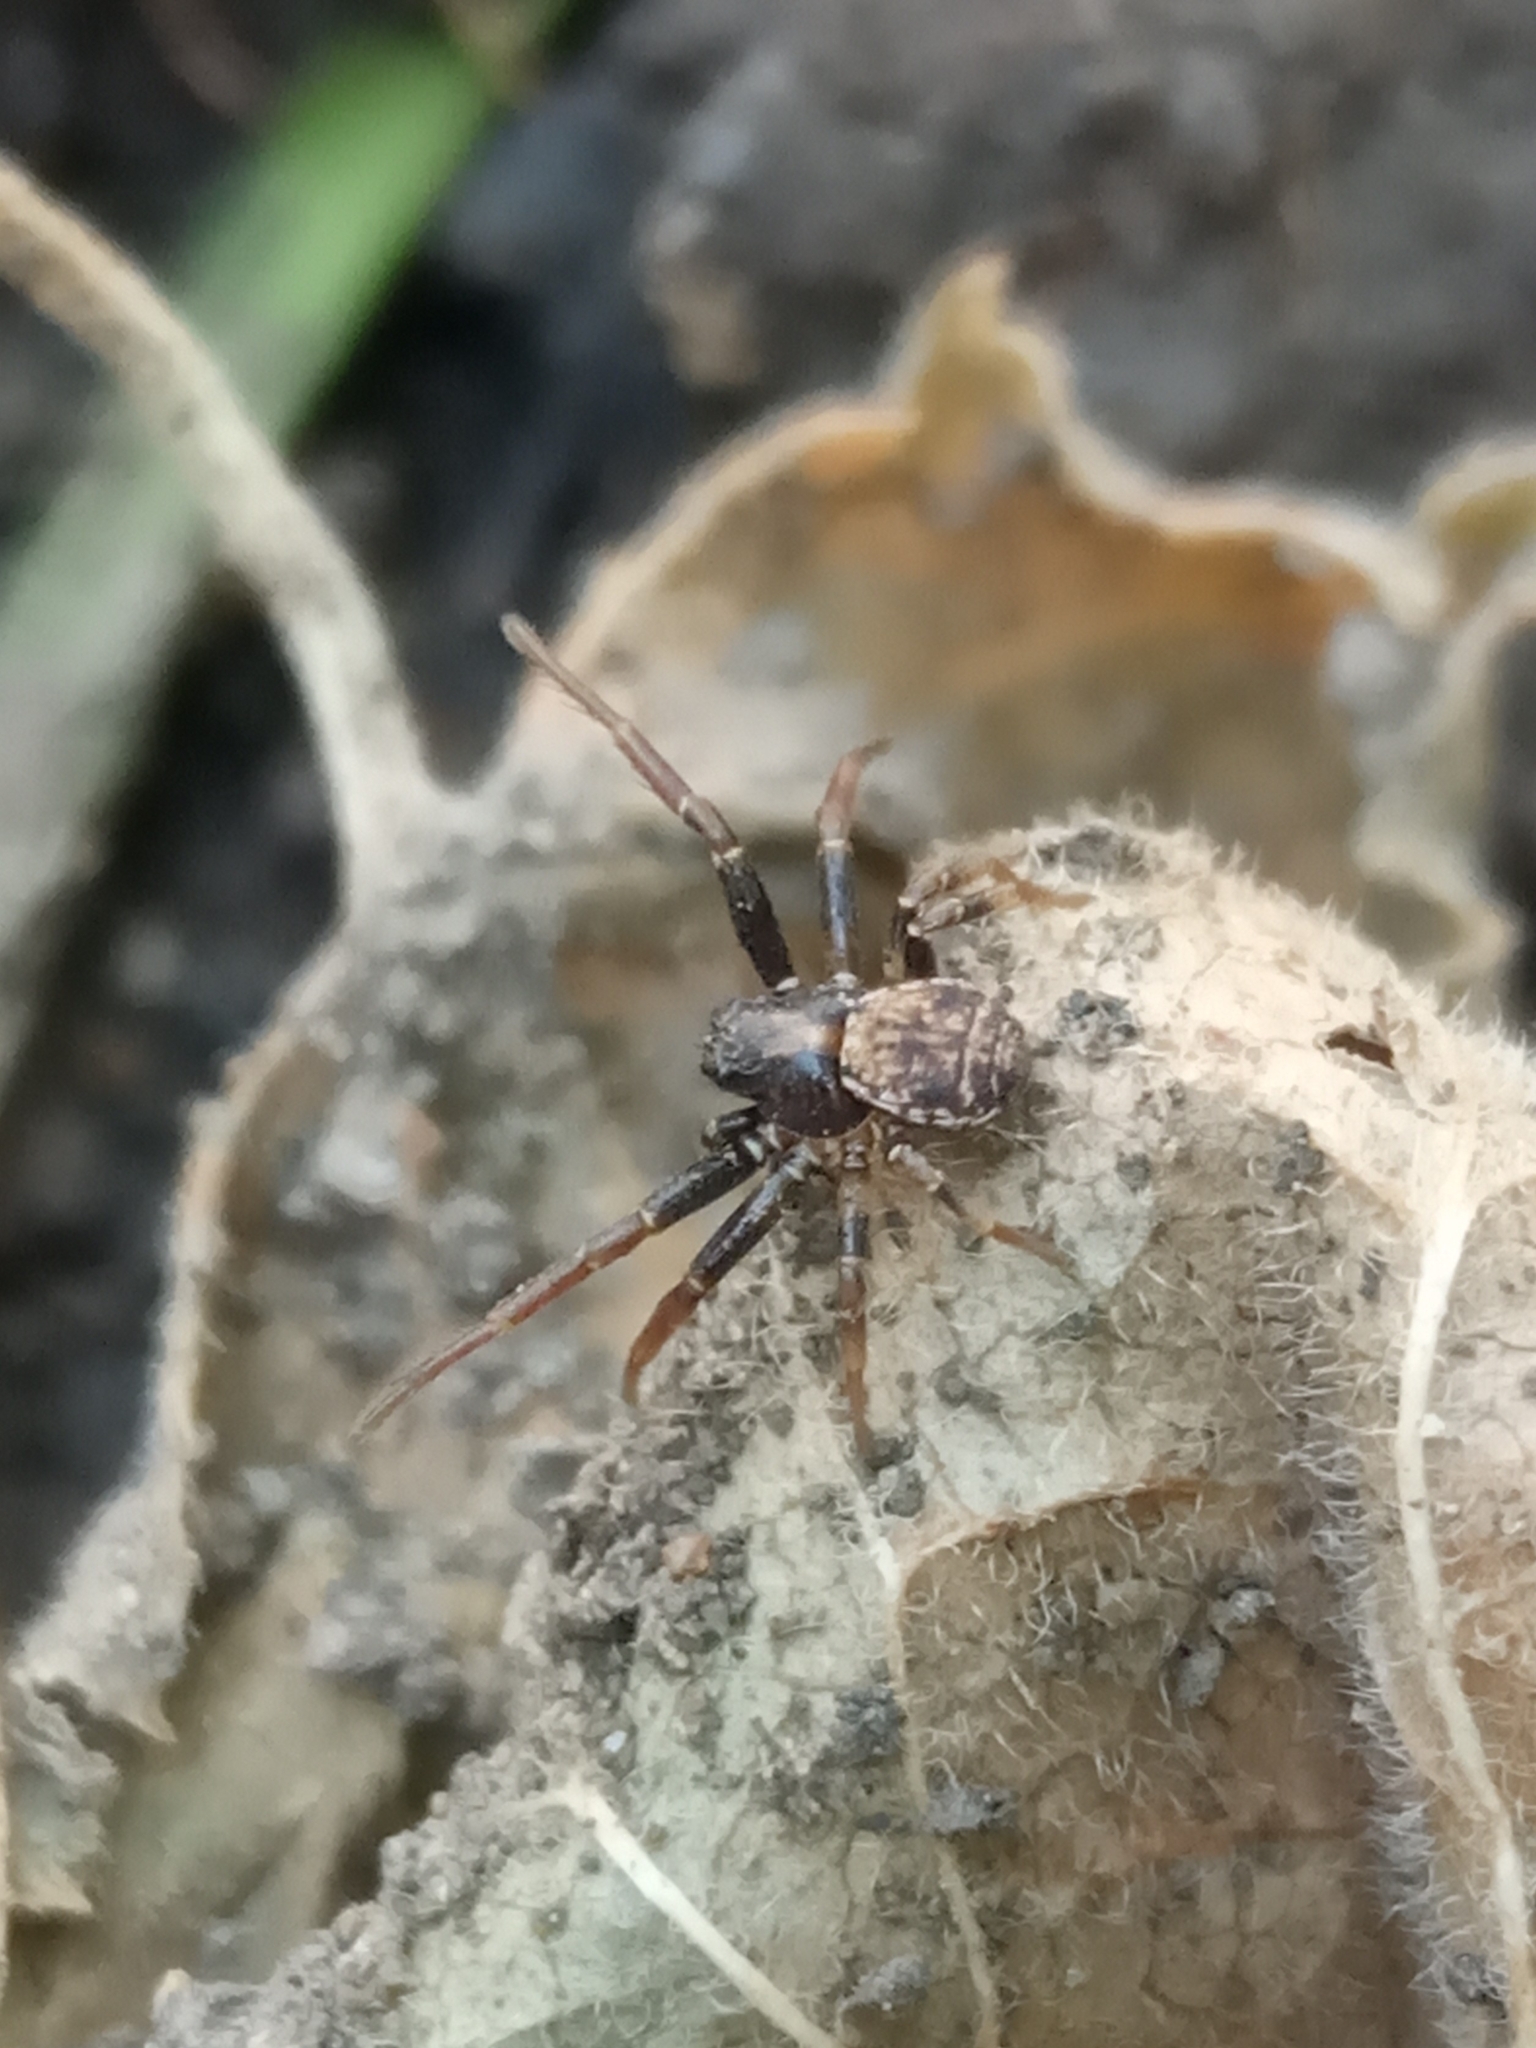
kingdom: Animalia
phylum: Arthropoda
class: Arachnida
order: Araneae
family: Thomisidae
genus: Xysticus
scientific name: Xysticus
